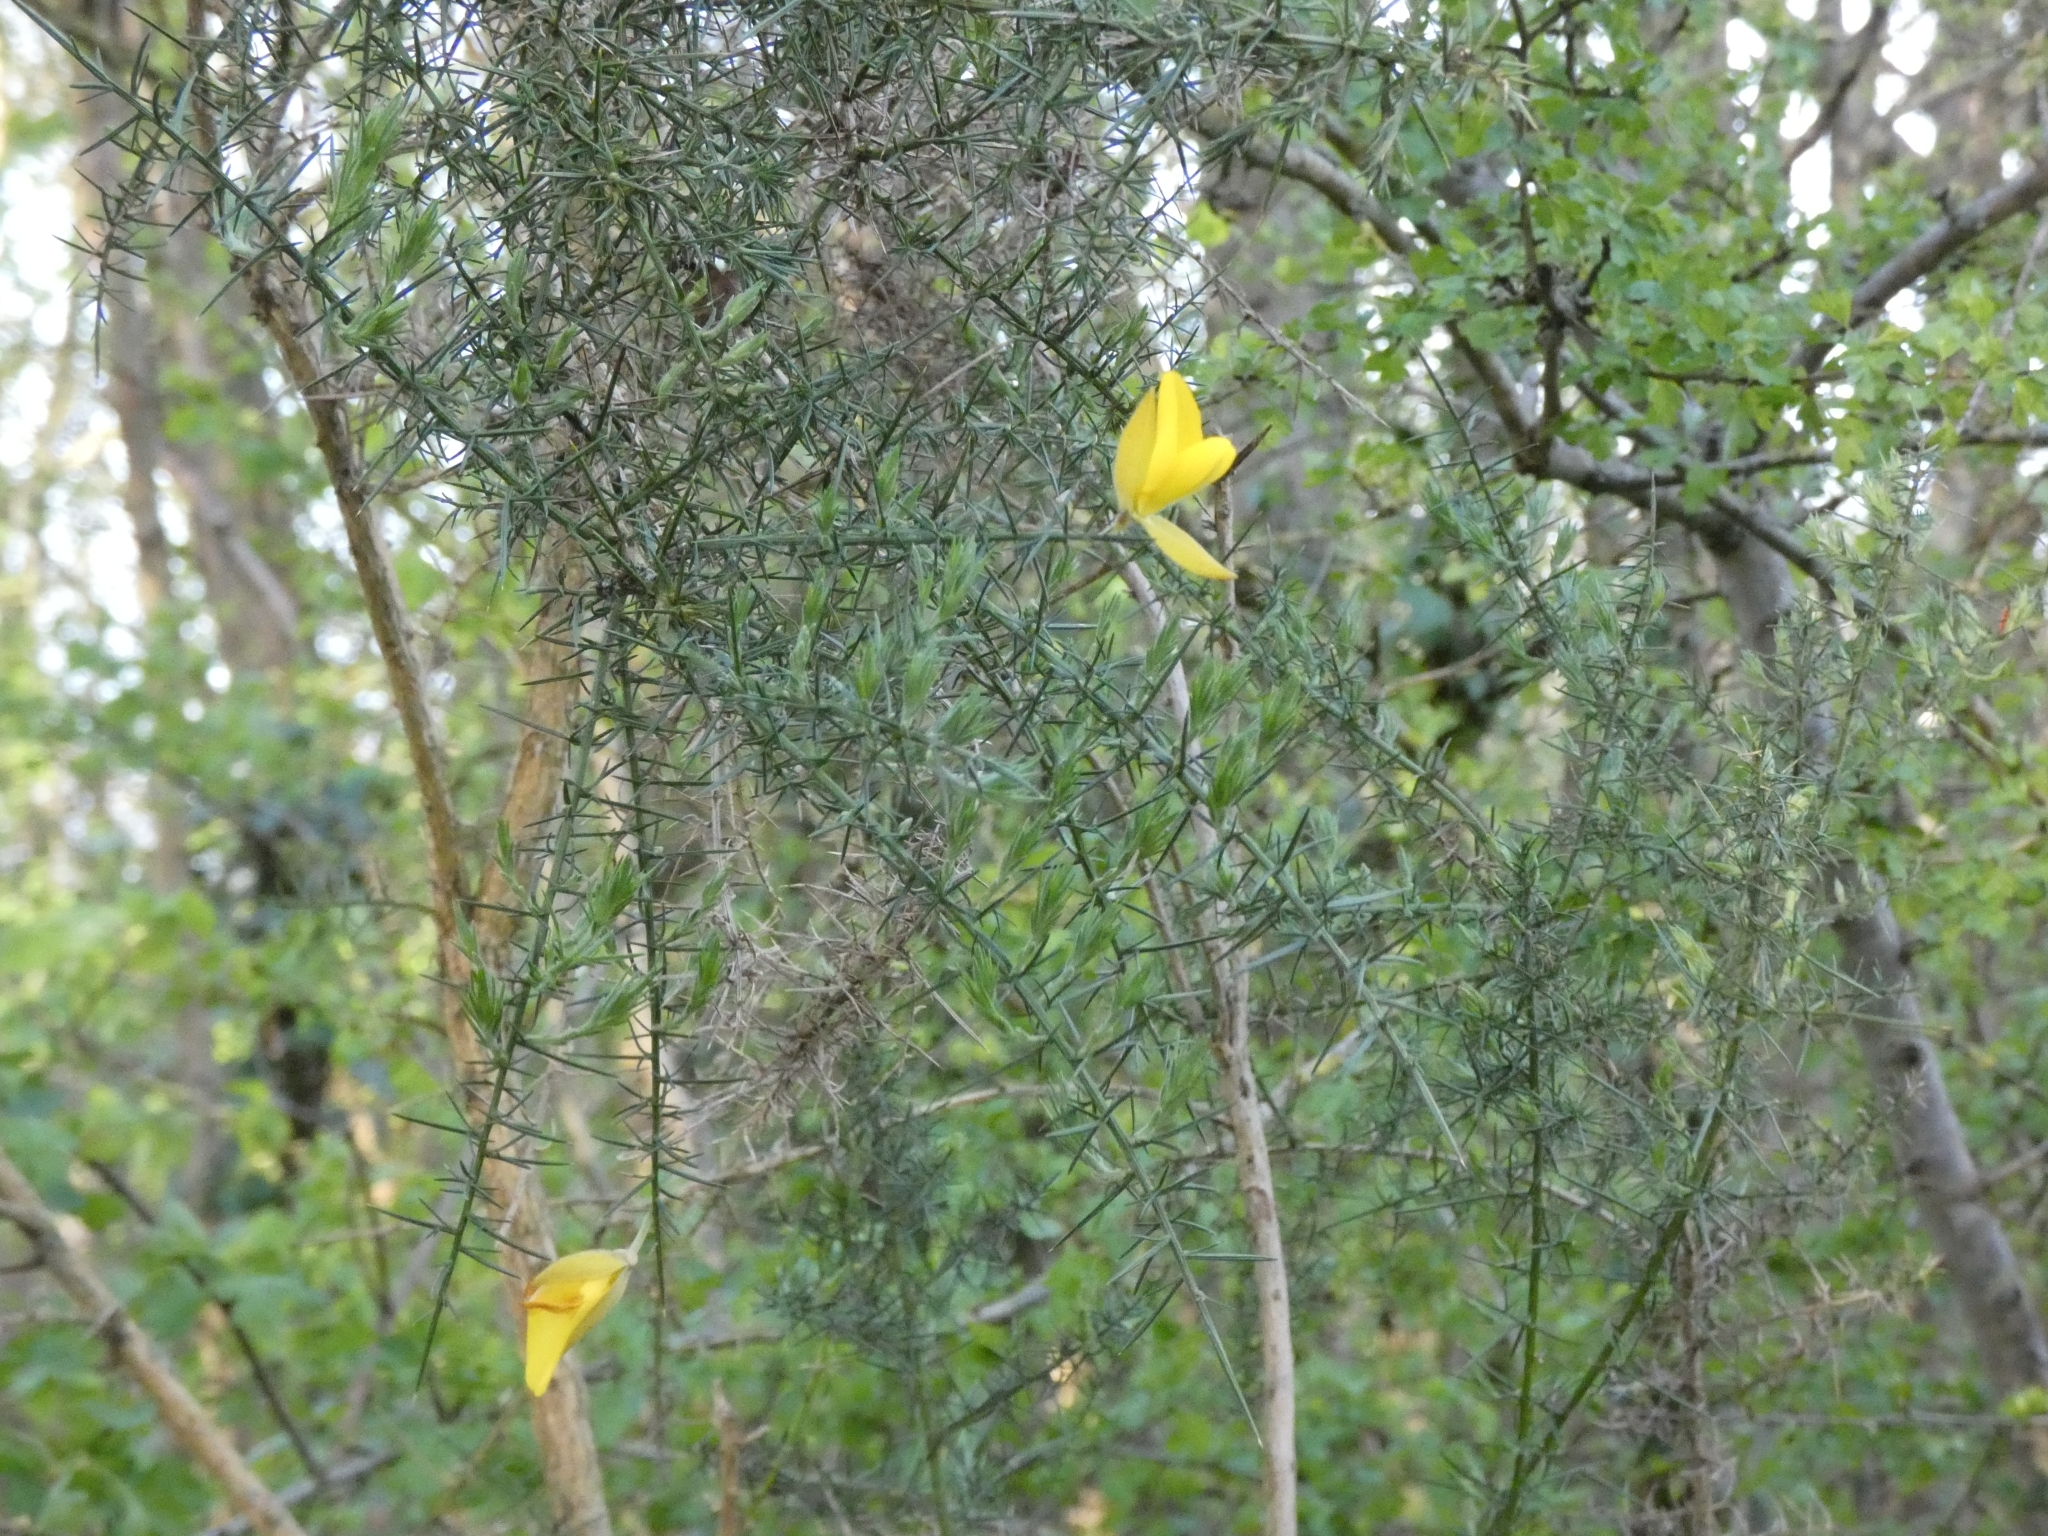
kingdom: Plantae
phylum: Tracheophyta
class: Magnoliopsida
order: Fabales
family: Fabaceae
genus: Ulex
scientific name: Ulex europaeus
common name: Common gorse
